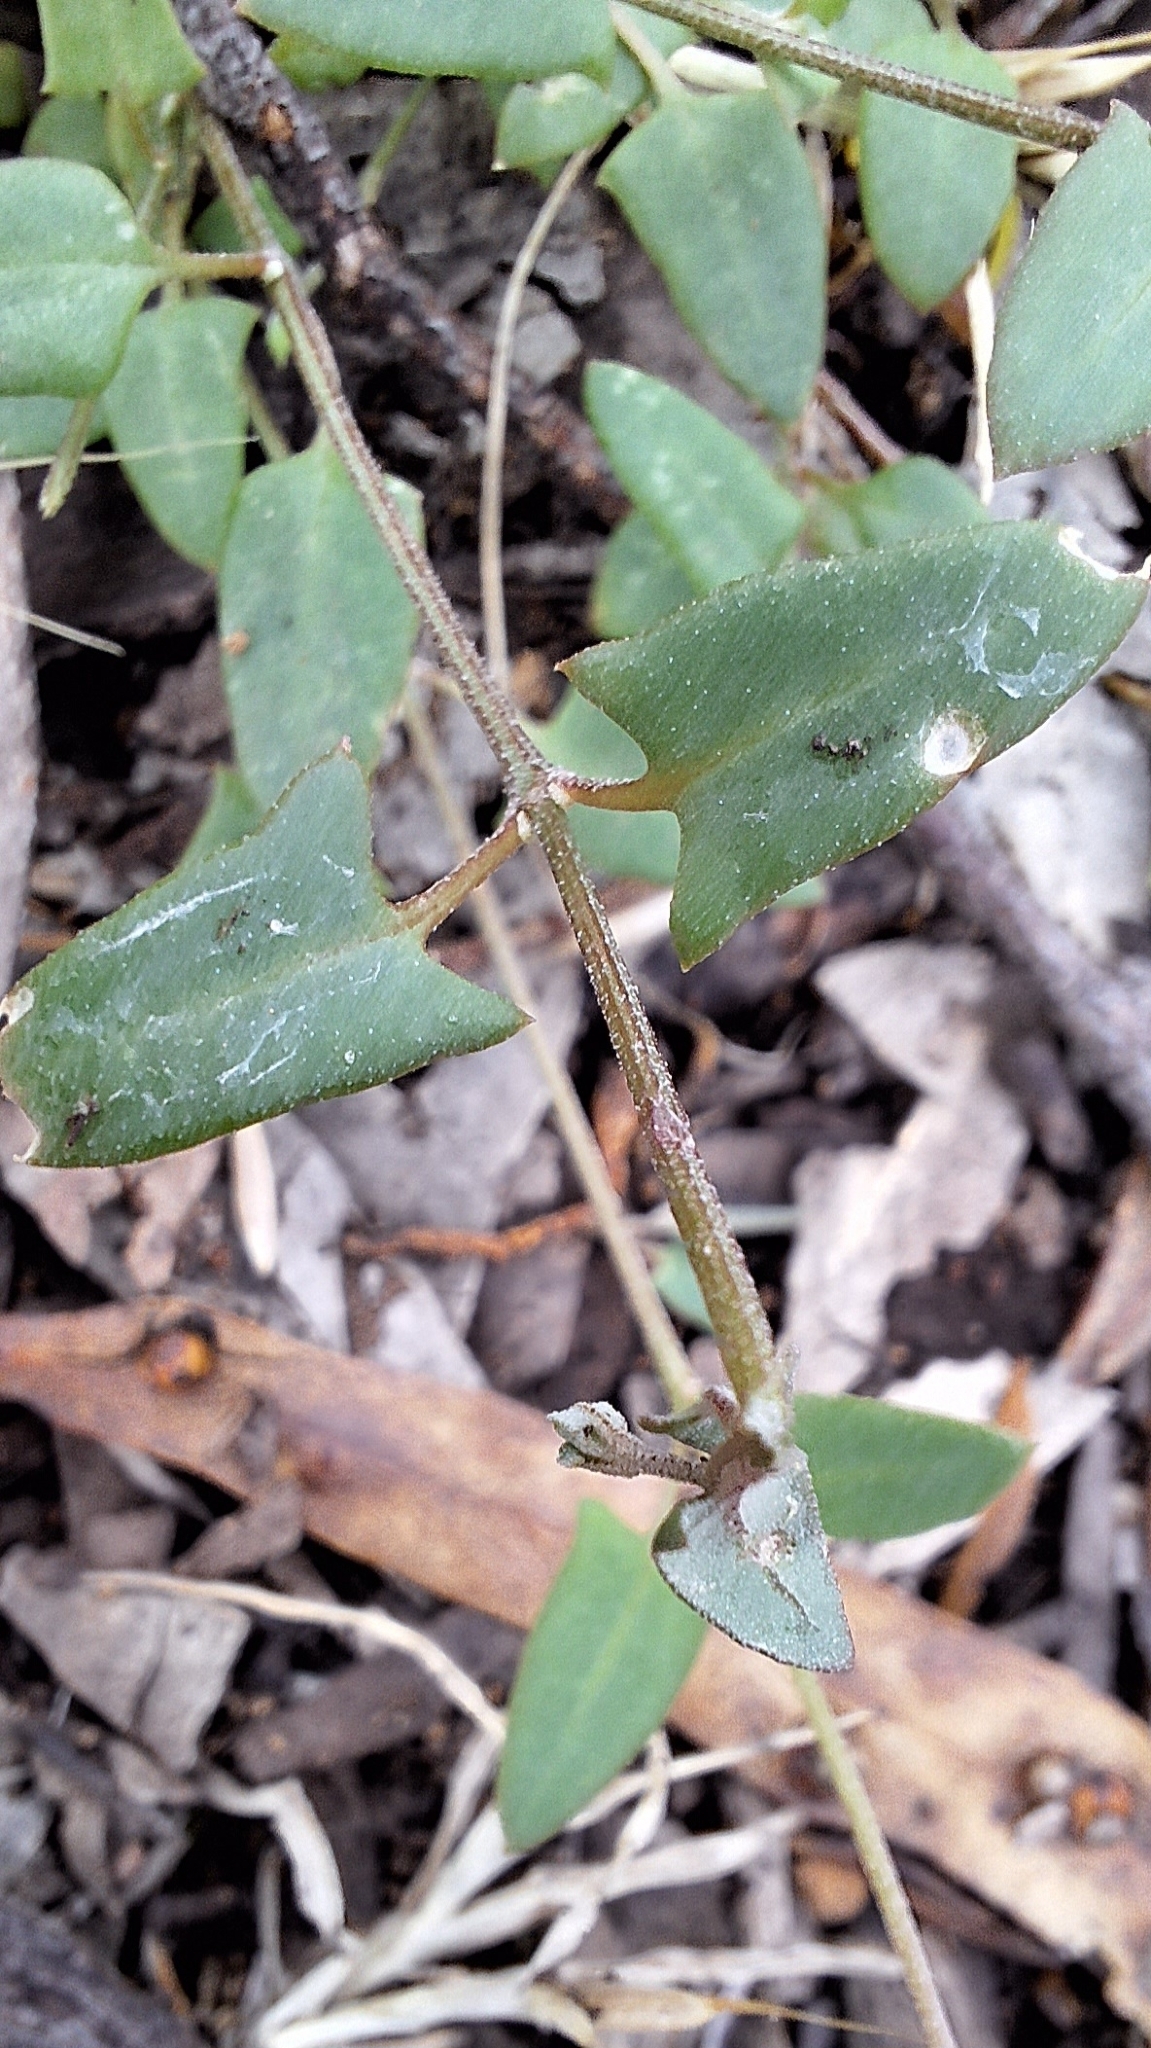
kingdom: Plantae
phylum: Tracheophyta
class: Magnoliopsida
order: Caryophyllales
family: Amaranthaceae
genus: Chenopodium
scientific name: Chenopodium nutans
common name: Climbing-saltbush
